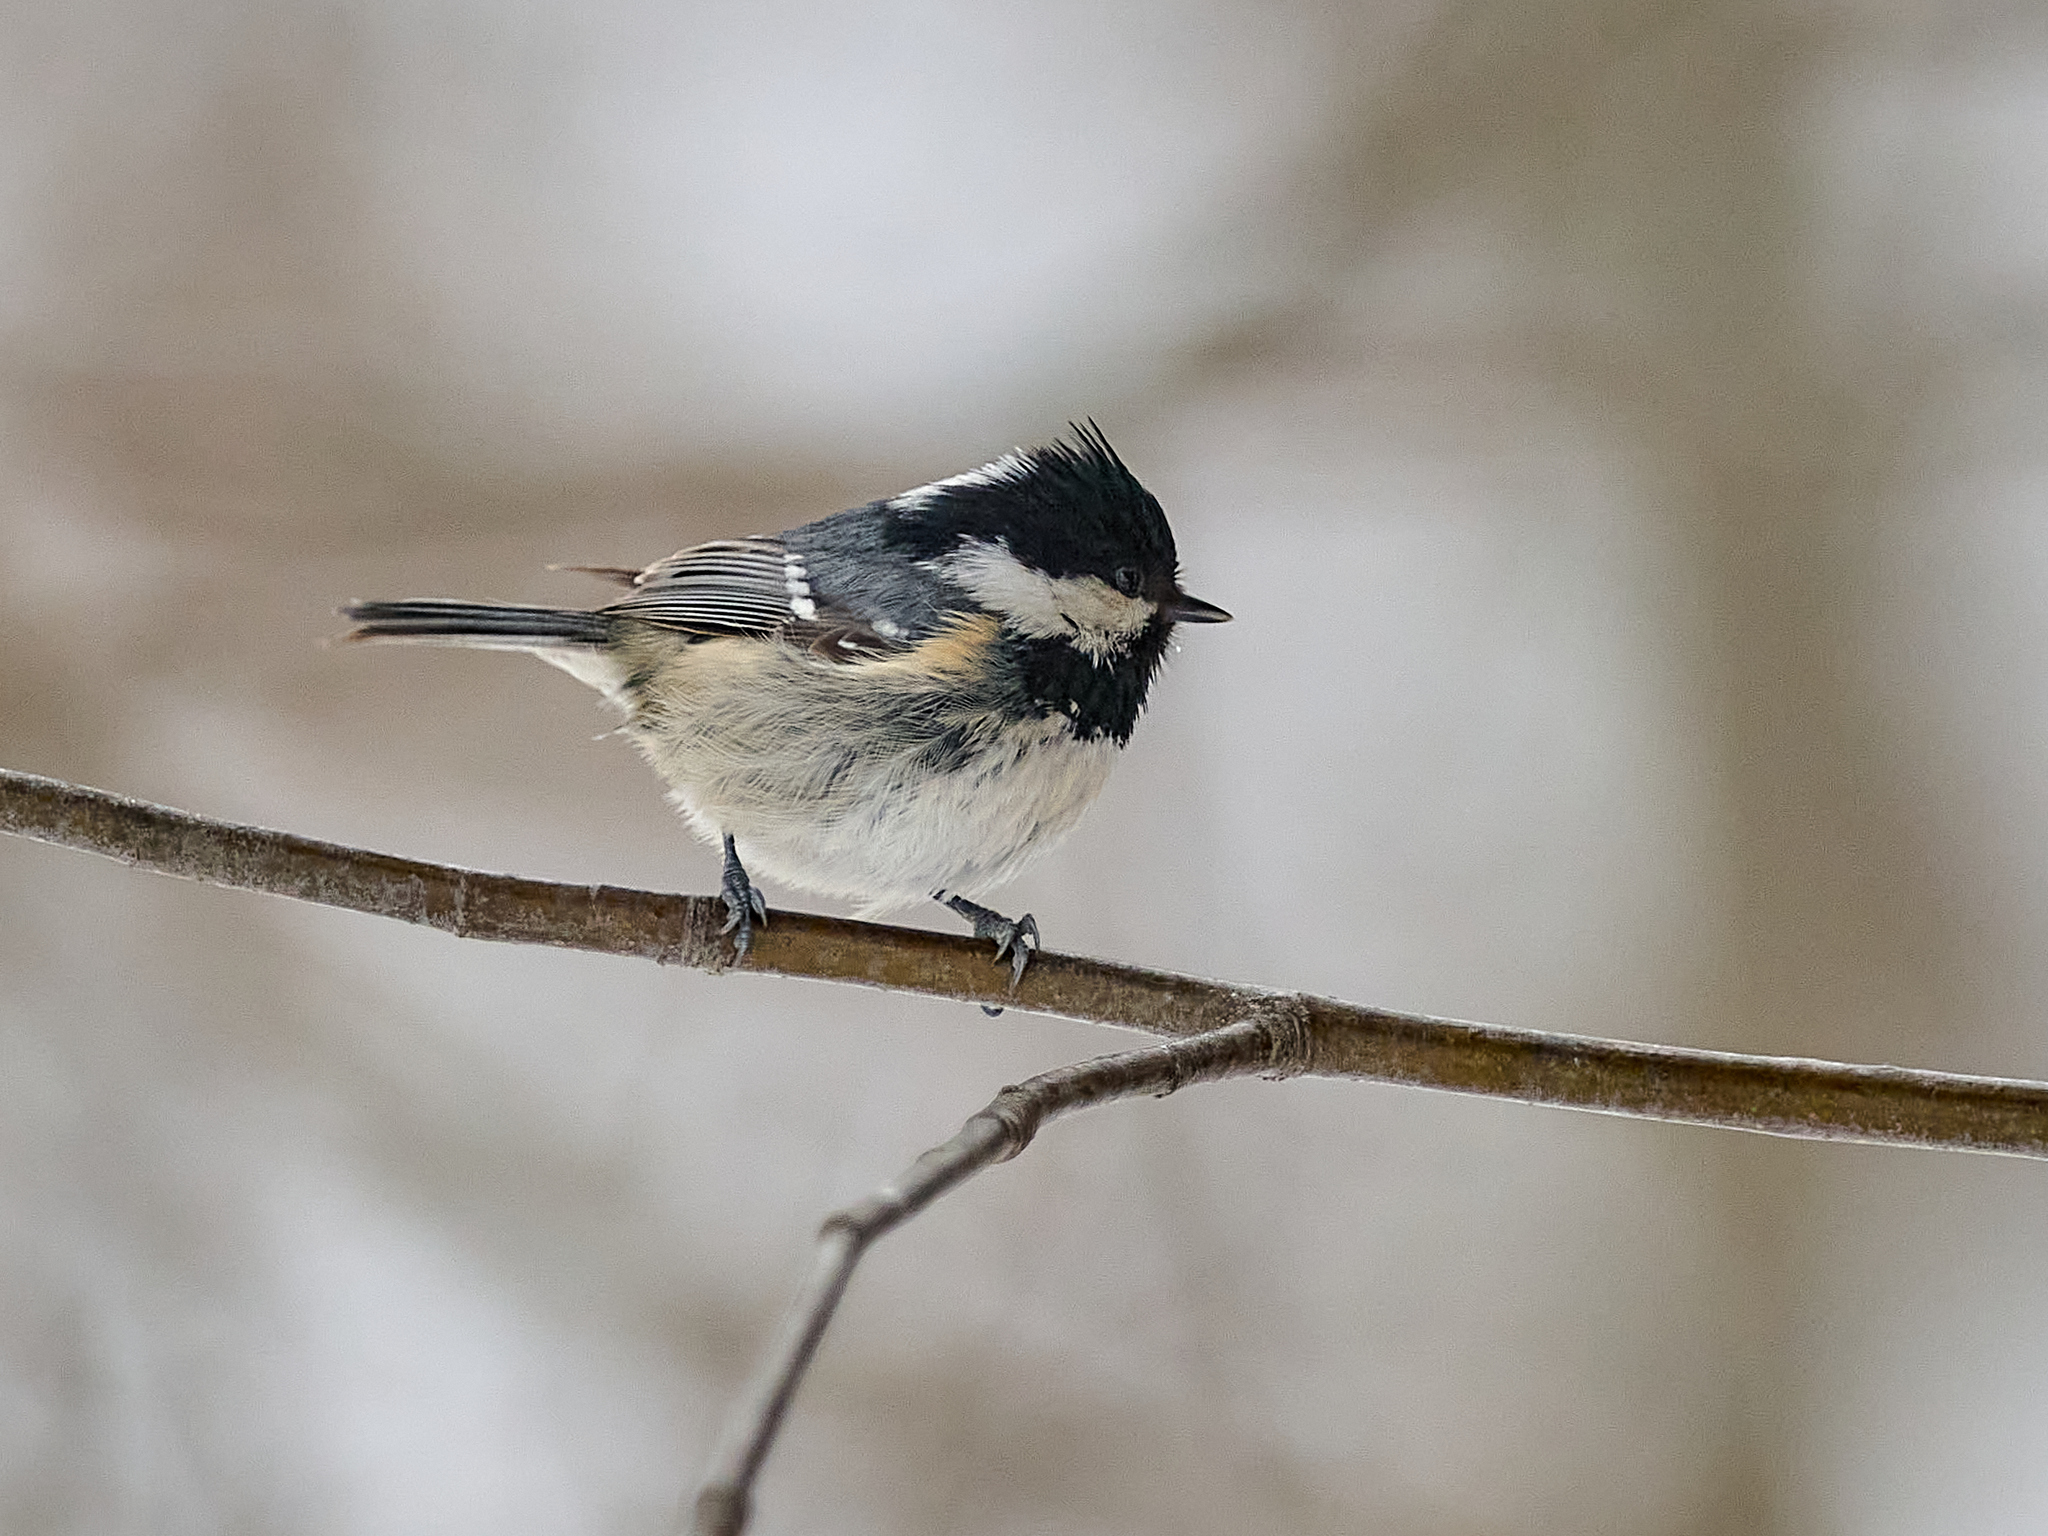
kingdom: Animalia
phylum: Chordata
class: Aves
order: Passeriformes
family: Paridae
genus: Periparus
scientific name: Periparus ater
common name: Coal tit
